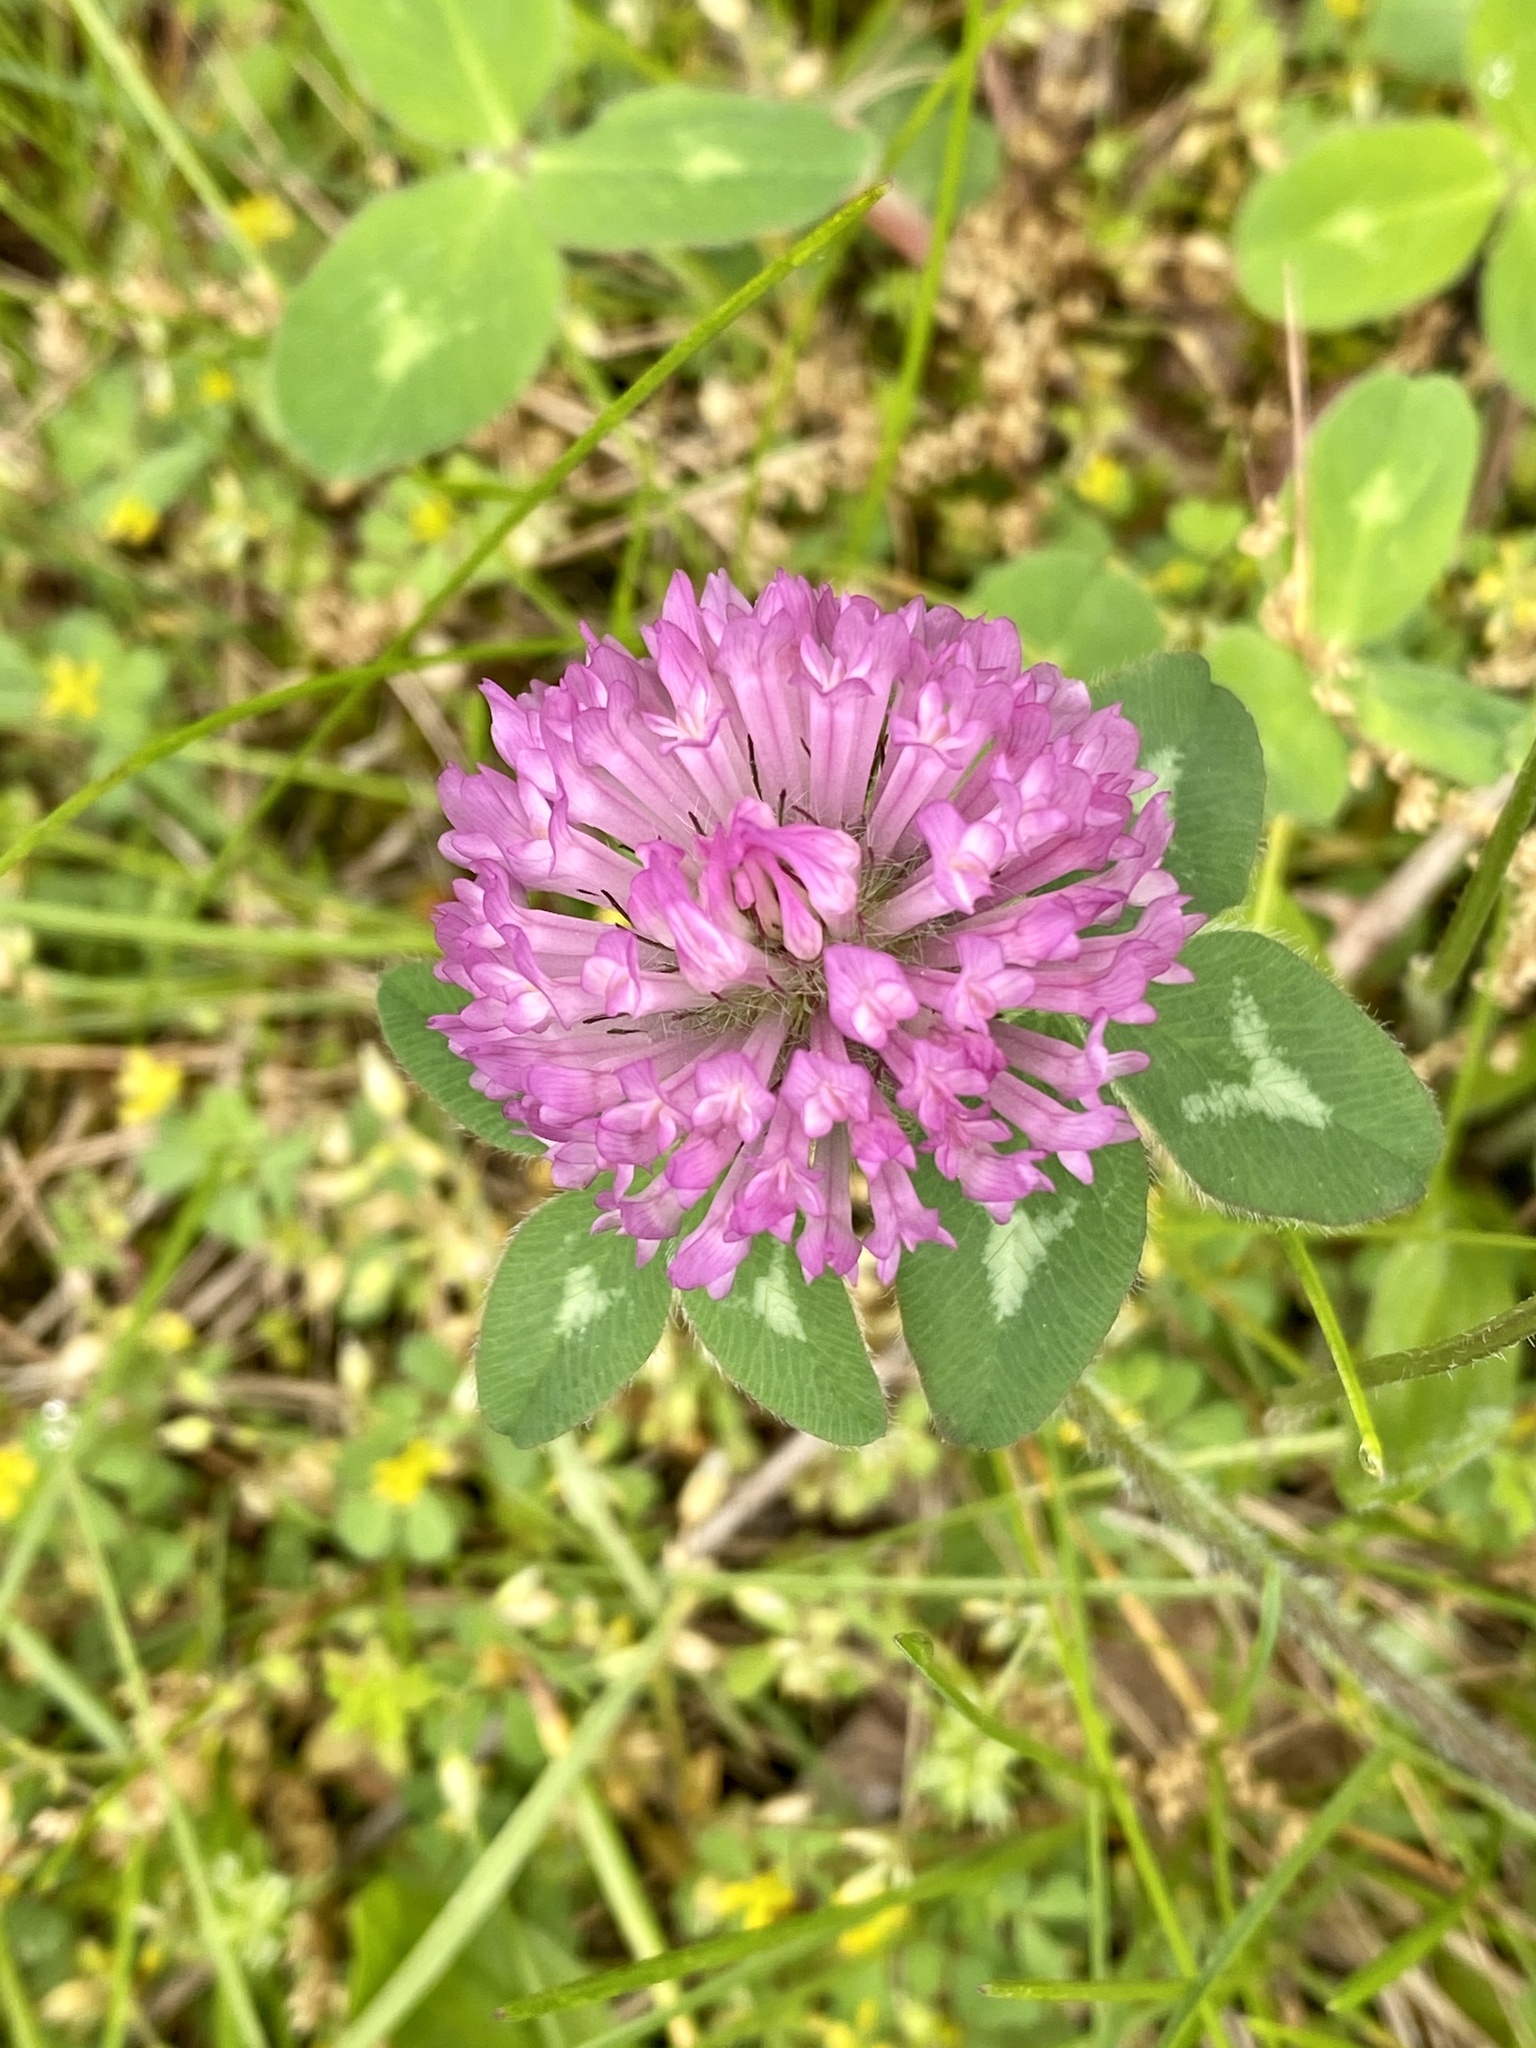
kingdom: Plantae
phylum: Tracheophyta
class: Magnoliopsida
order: Fabales
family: Fabaceae
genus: Trifolium
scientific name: Trifolium pratense
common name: Red clover
